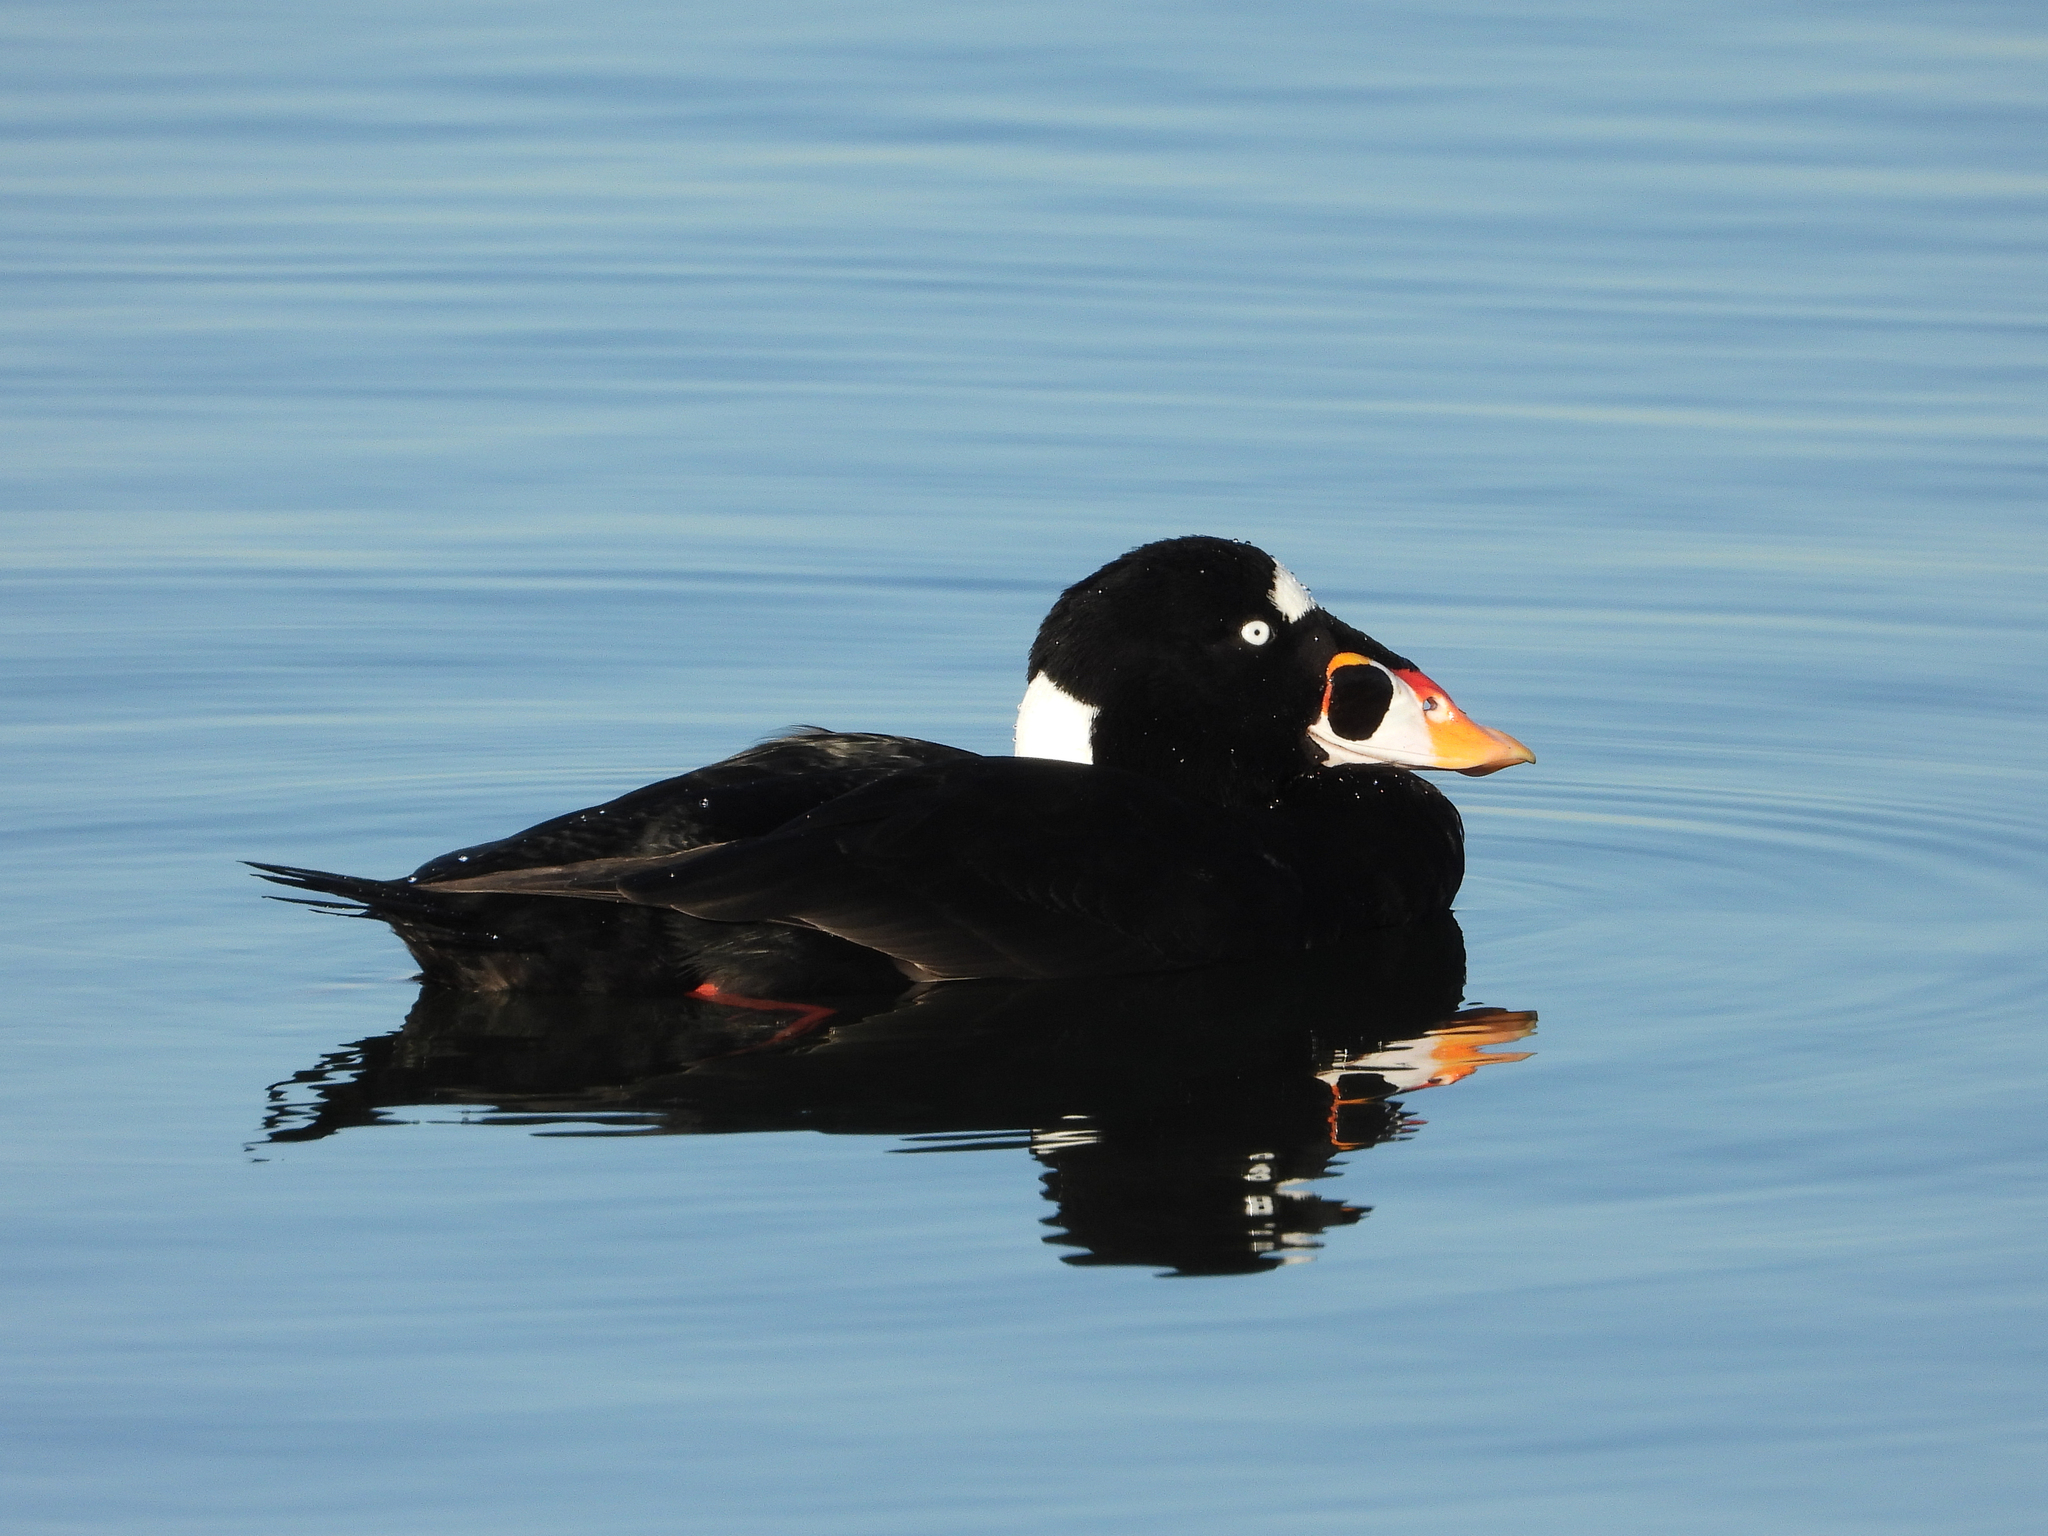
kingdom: Animalia
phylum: Chordata
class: Aves
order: Anseriformes
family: Anatidae
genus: Melanitta
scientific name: Melanitta perspicillata
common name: Surf scoter
